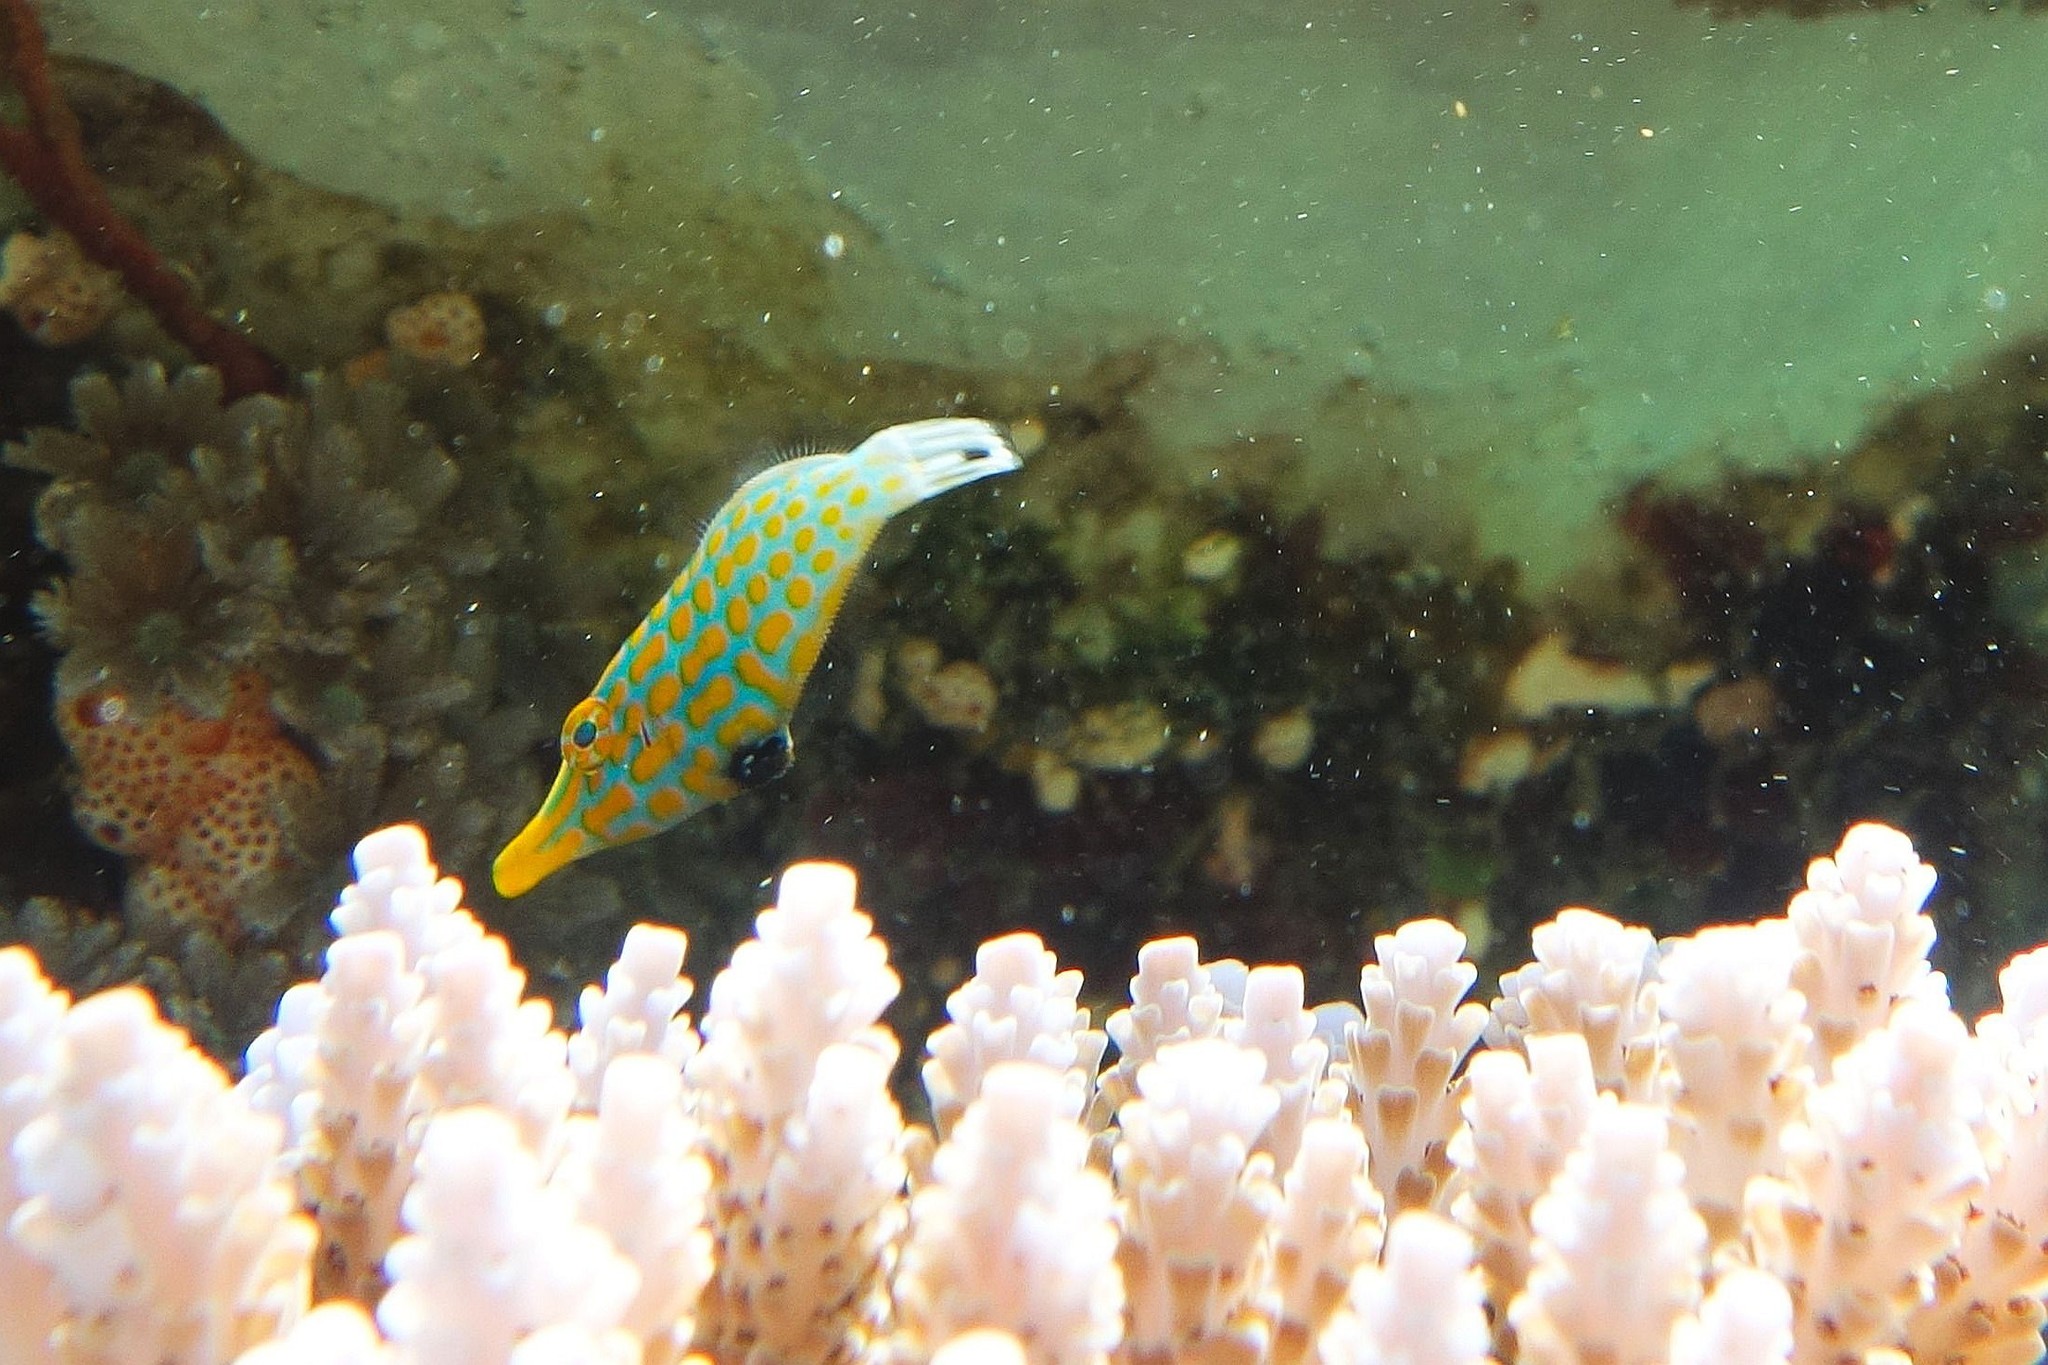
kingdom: Animalia
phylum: Chordata
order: Tetraodontiformes
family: Monacanthidae
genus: Oxymonacanthus
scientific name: Oxymonacanthus longirostris
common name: Beaked leatherjacket
